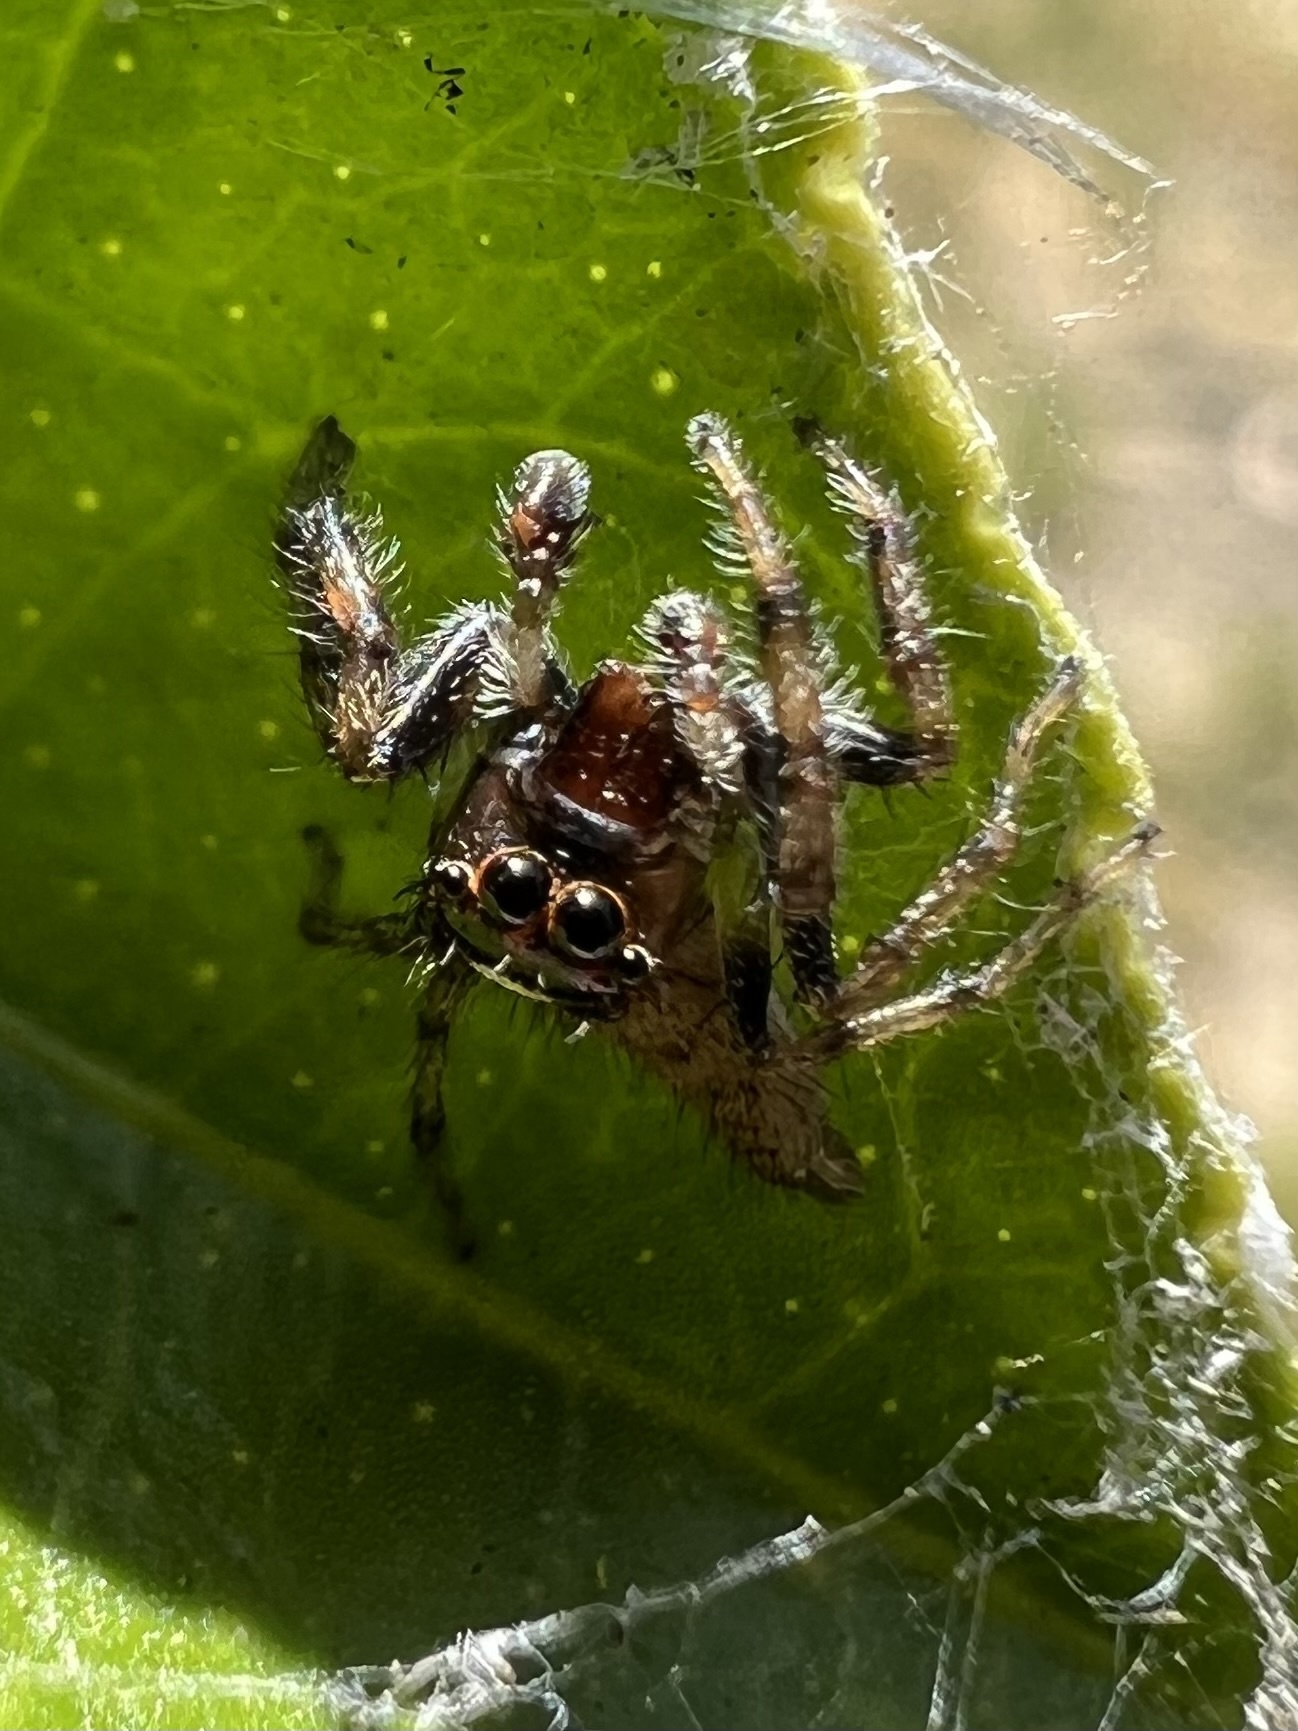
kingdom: Animalia
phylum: Arthropoda
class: Arachnida
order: Araneae
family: Salticidae
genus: Colonus
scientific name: Colonus hesperus
